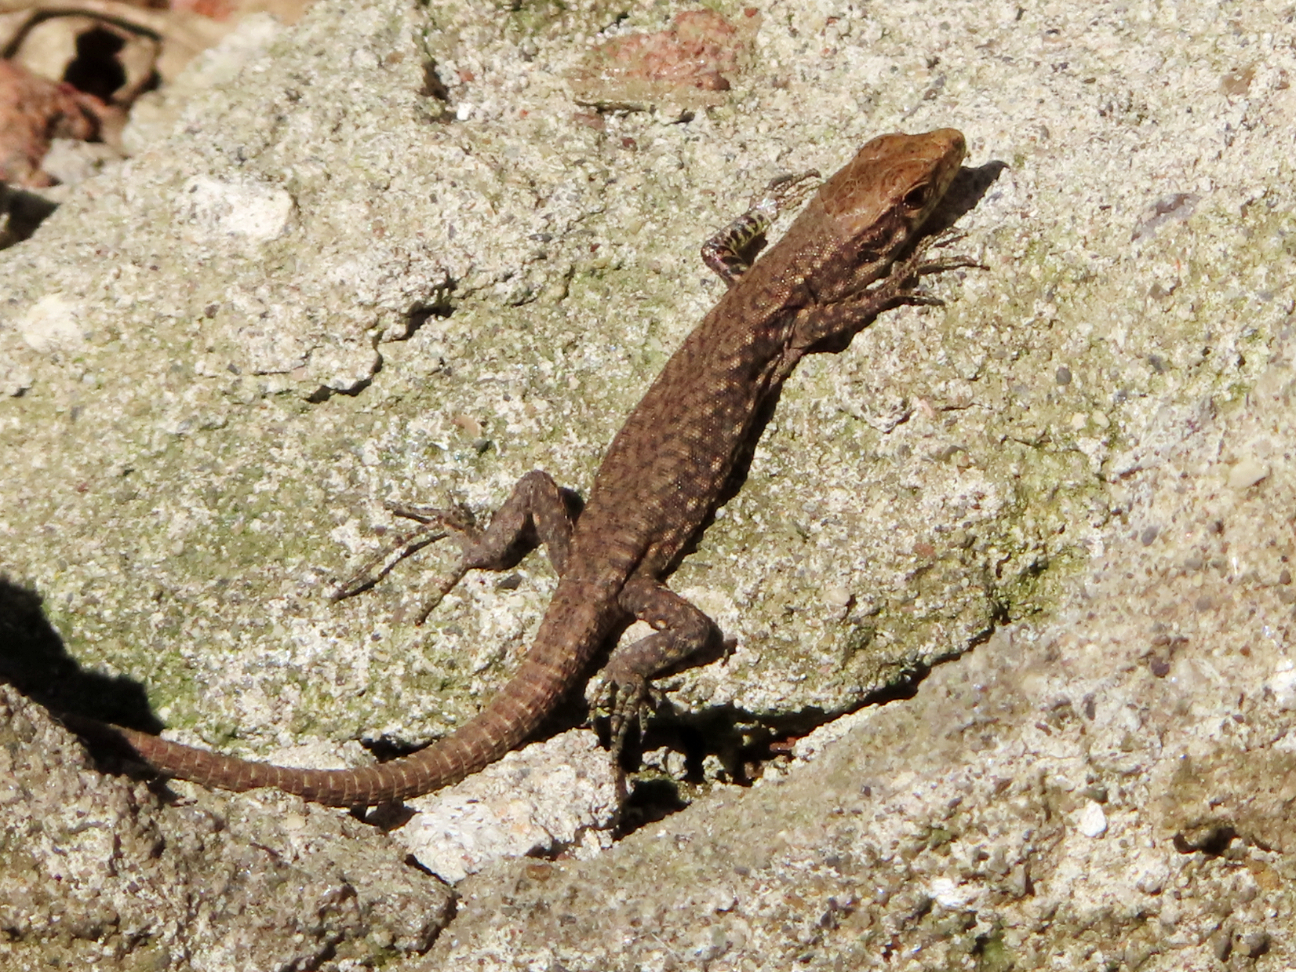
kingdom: Animalia
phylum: Chordata
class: Squamata
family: Lacertidae
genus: Darevskia
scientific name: Darevskia mixta
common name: Ajarian lizard
